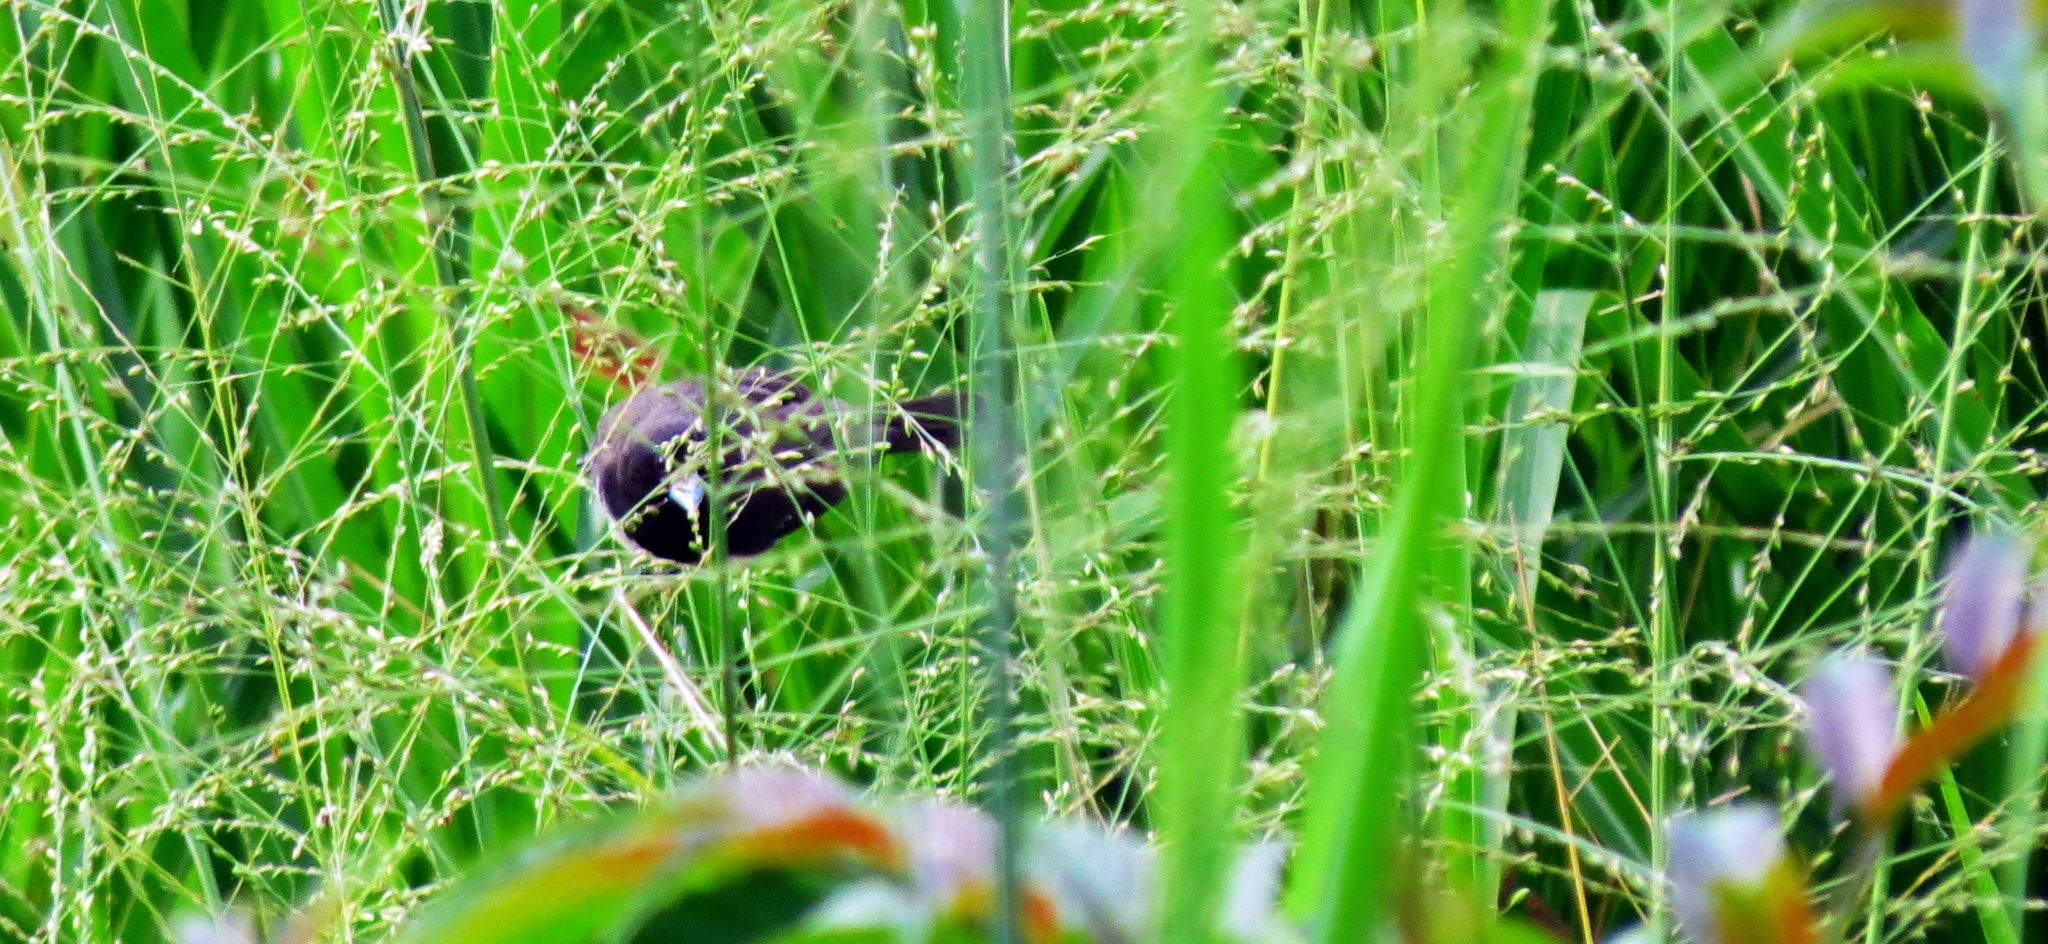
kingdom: Animalia
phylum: Chordata
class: Aves
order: Passeriformes
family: Thraupidae
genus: Sporophila
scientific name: Sporophila nigricollis
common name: Yellow-bellied seedeater
